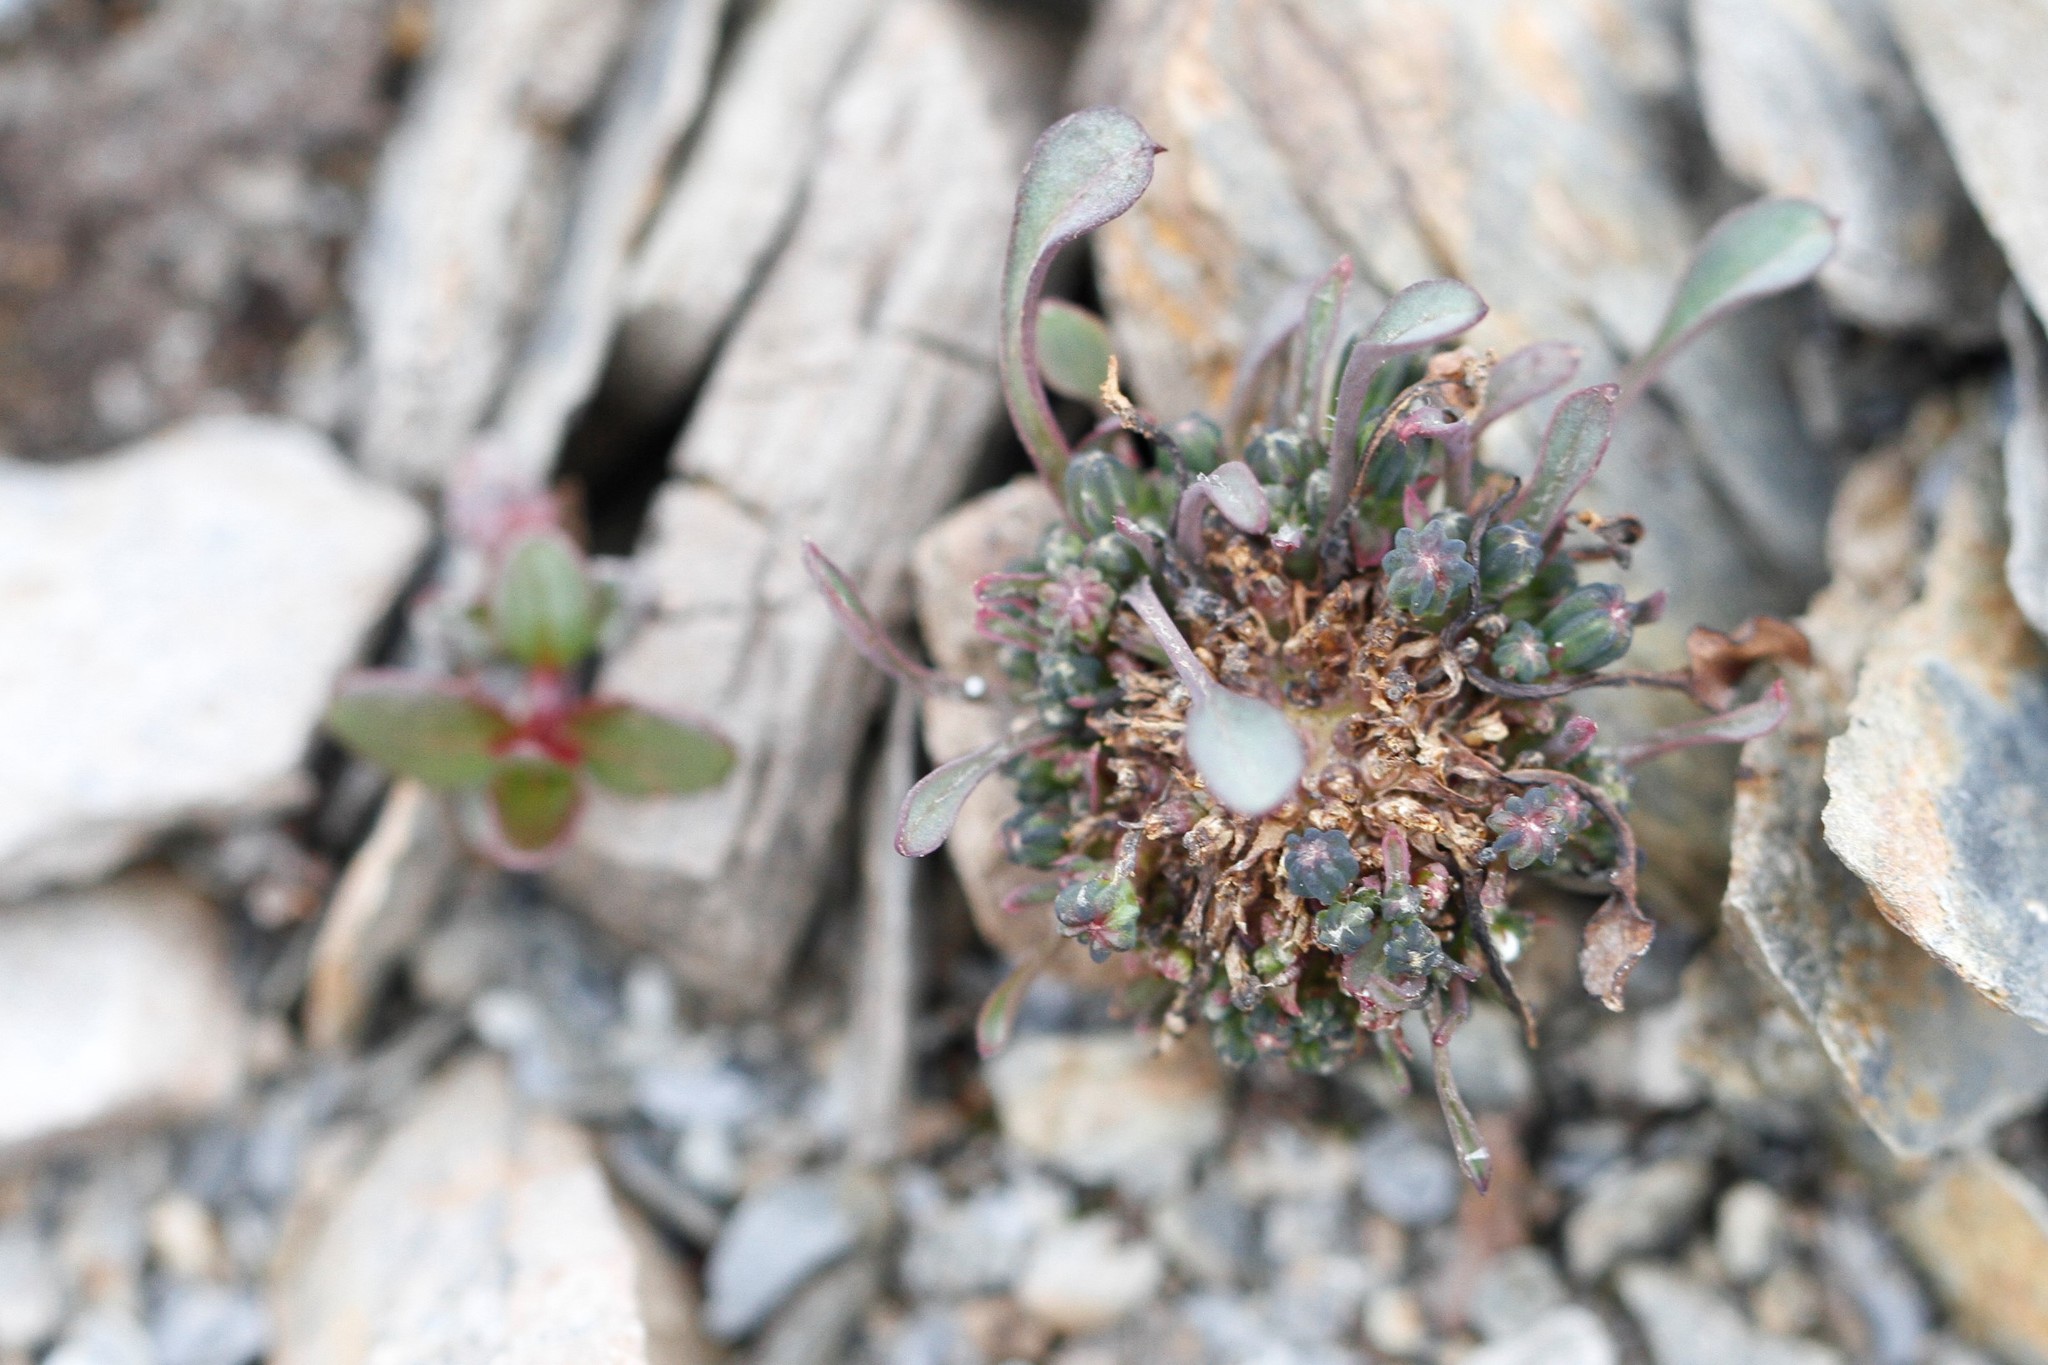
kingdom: Plantae
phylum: Tracheophyta
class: Magnoliopsida
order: Asterales
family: Asteraceae
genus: Askellia
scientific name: Askellia pygmaea
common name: Dwarf alpine hawksbeard
